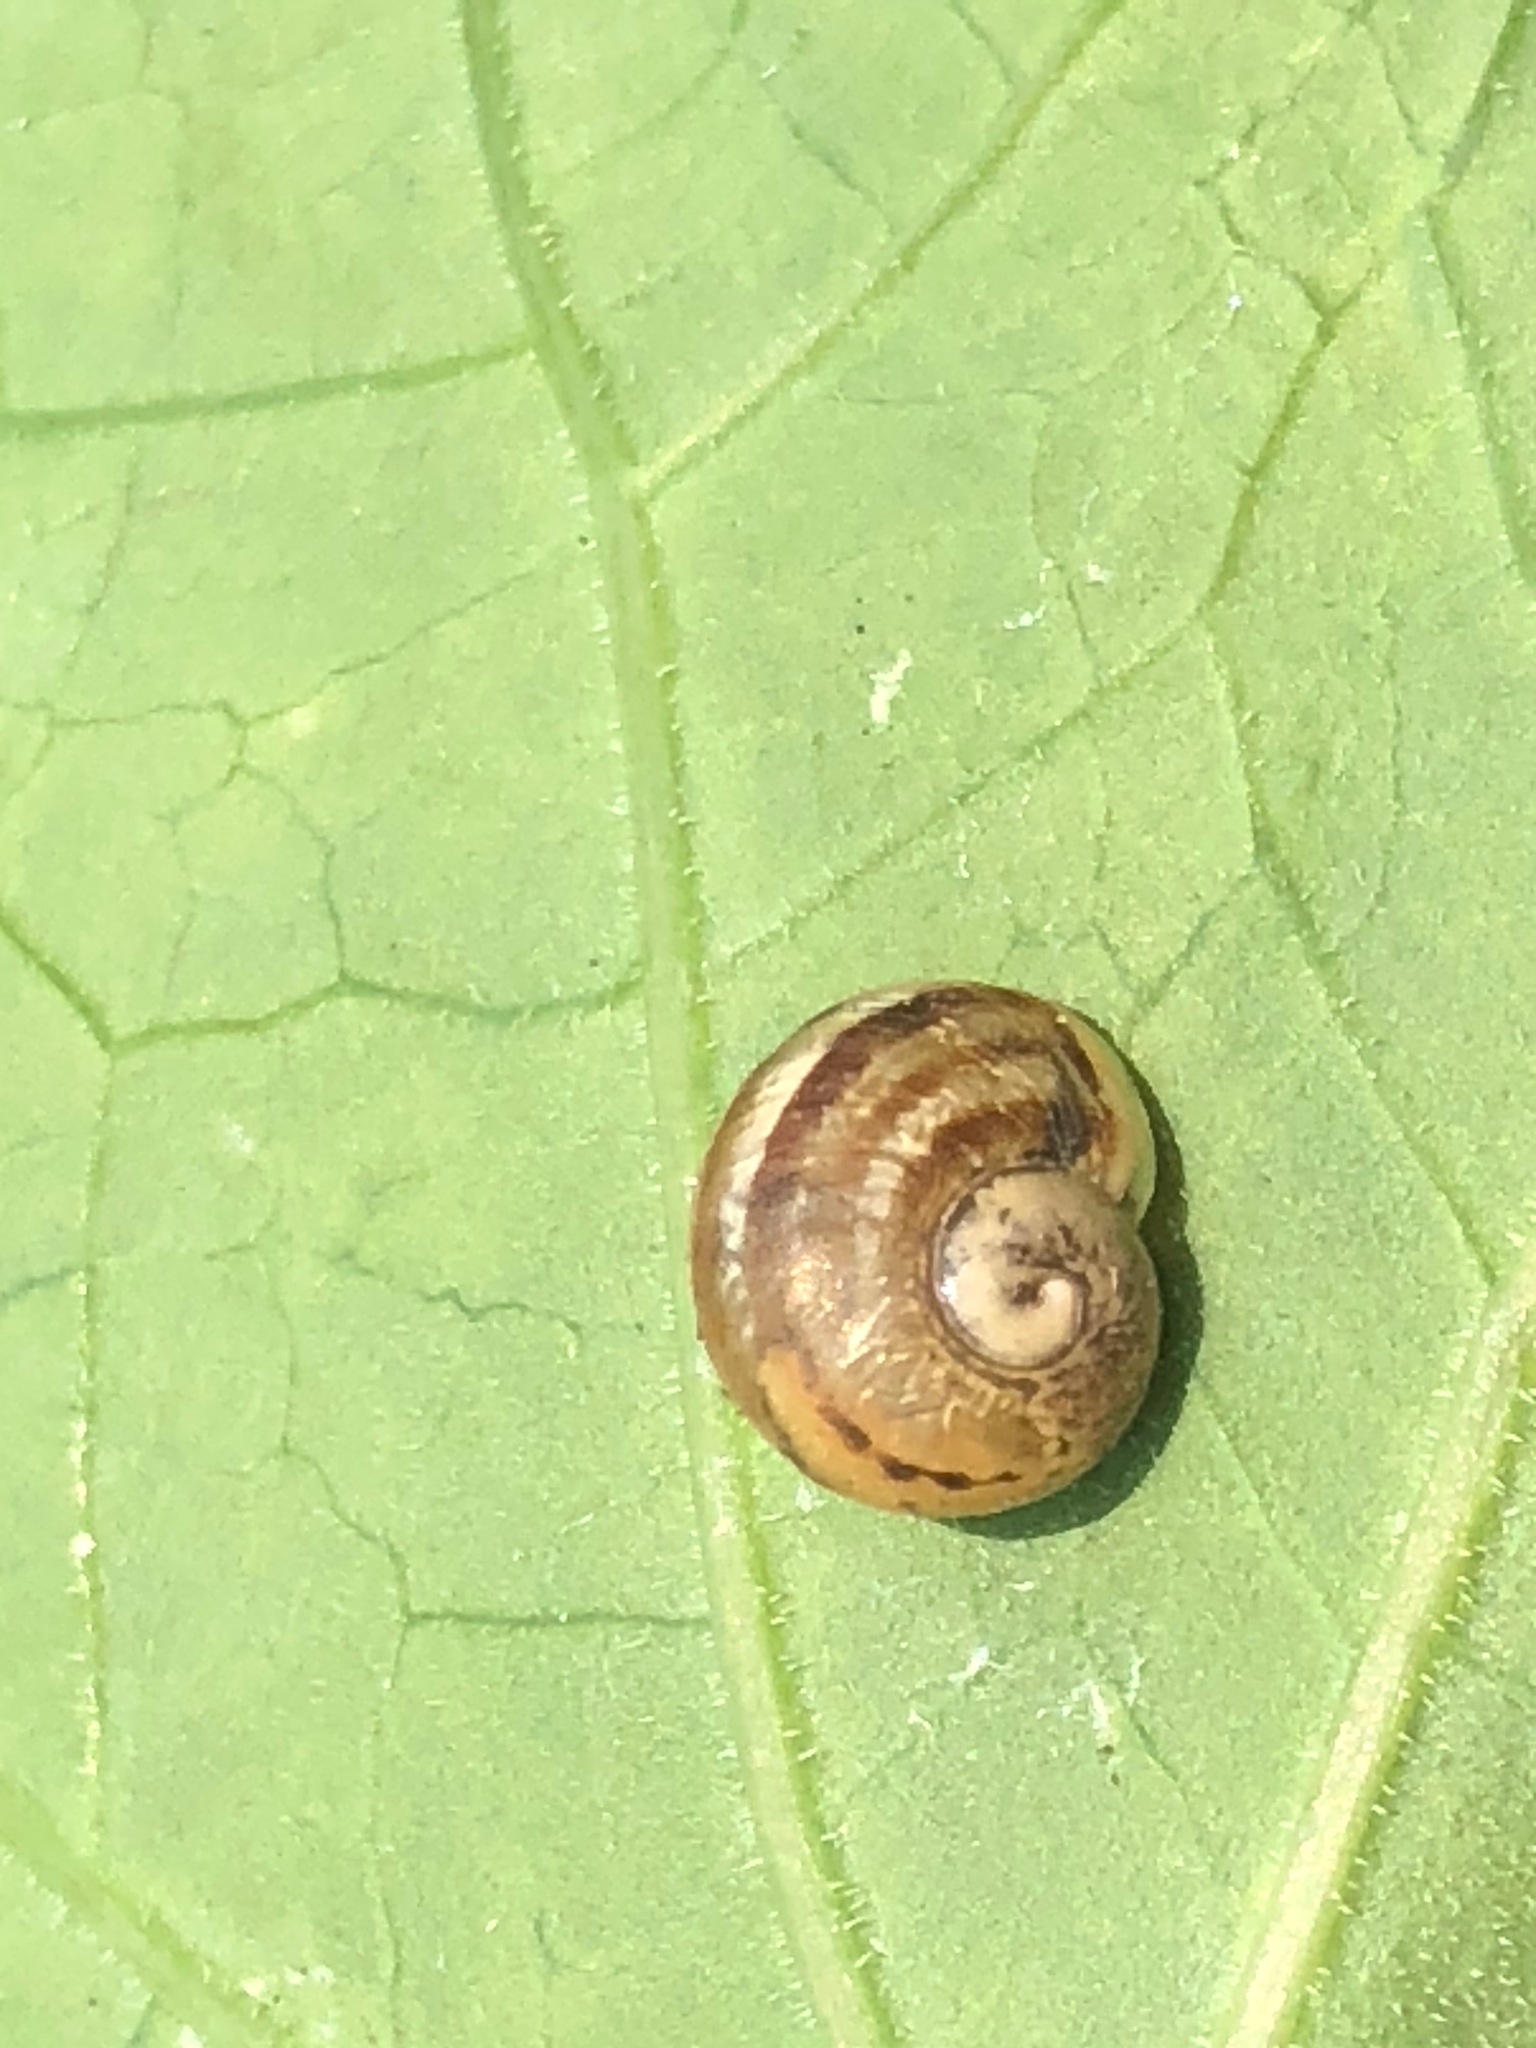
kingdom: Animalia
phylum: Mollusca
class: Gastropoda
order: Stylommatophora
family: Helicidae
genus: Cornu
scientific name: Cornu aspersum
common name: Brown garden snail
